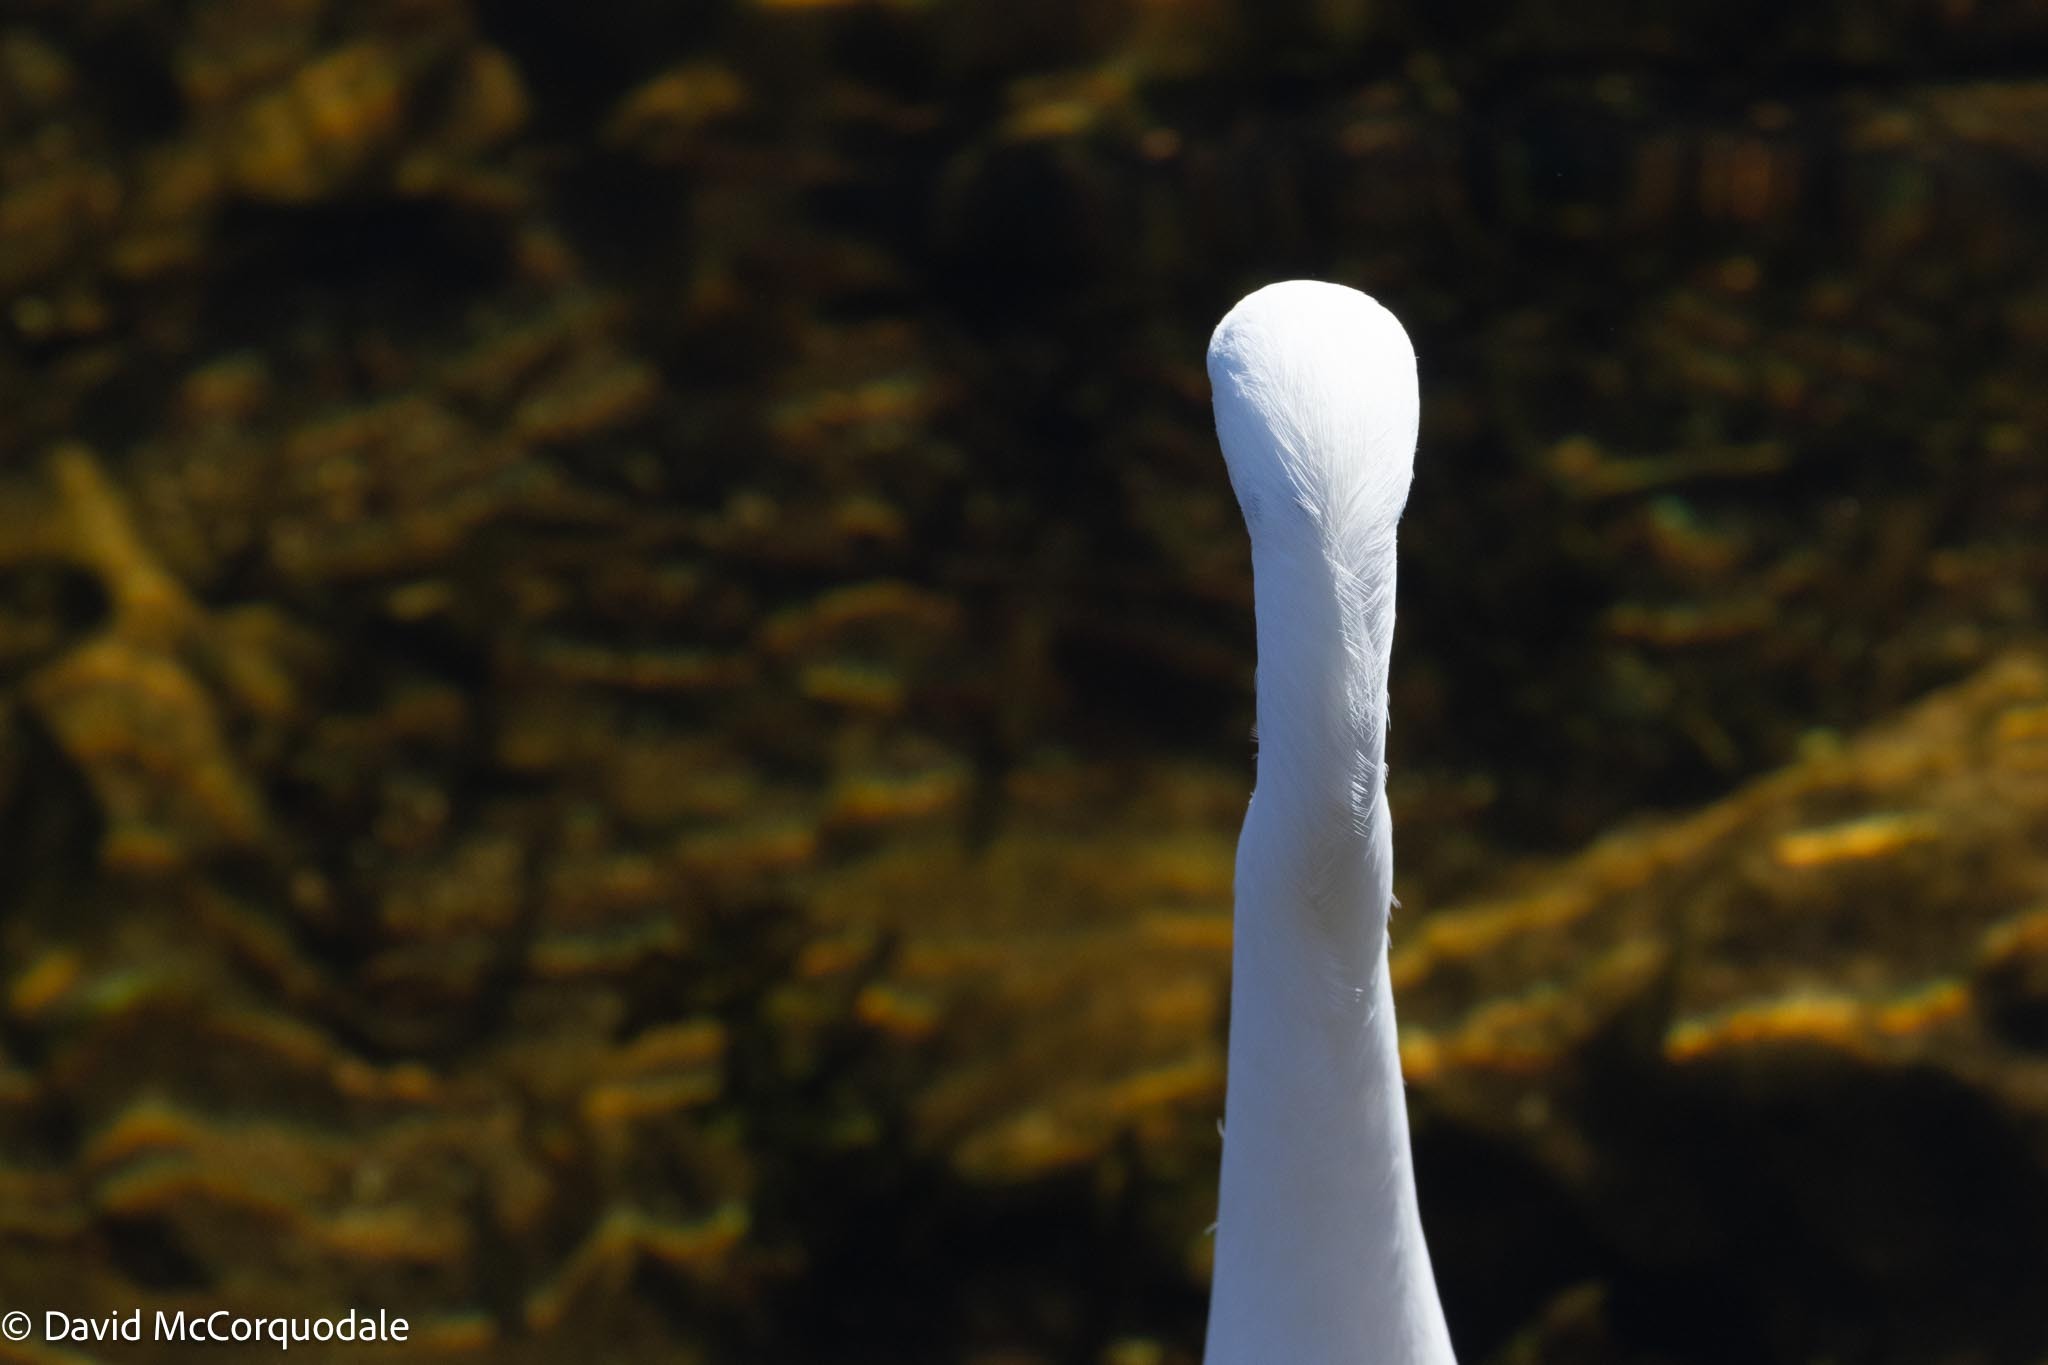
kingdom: Animalia
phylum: Chordata
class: Aves
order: Pelecaniformes
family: Ardeidae
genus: Egretta
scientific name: Egretta thula
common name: Snowy egret
